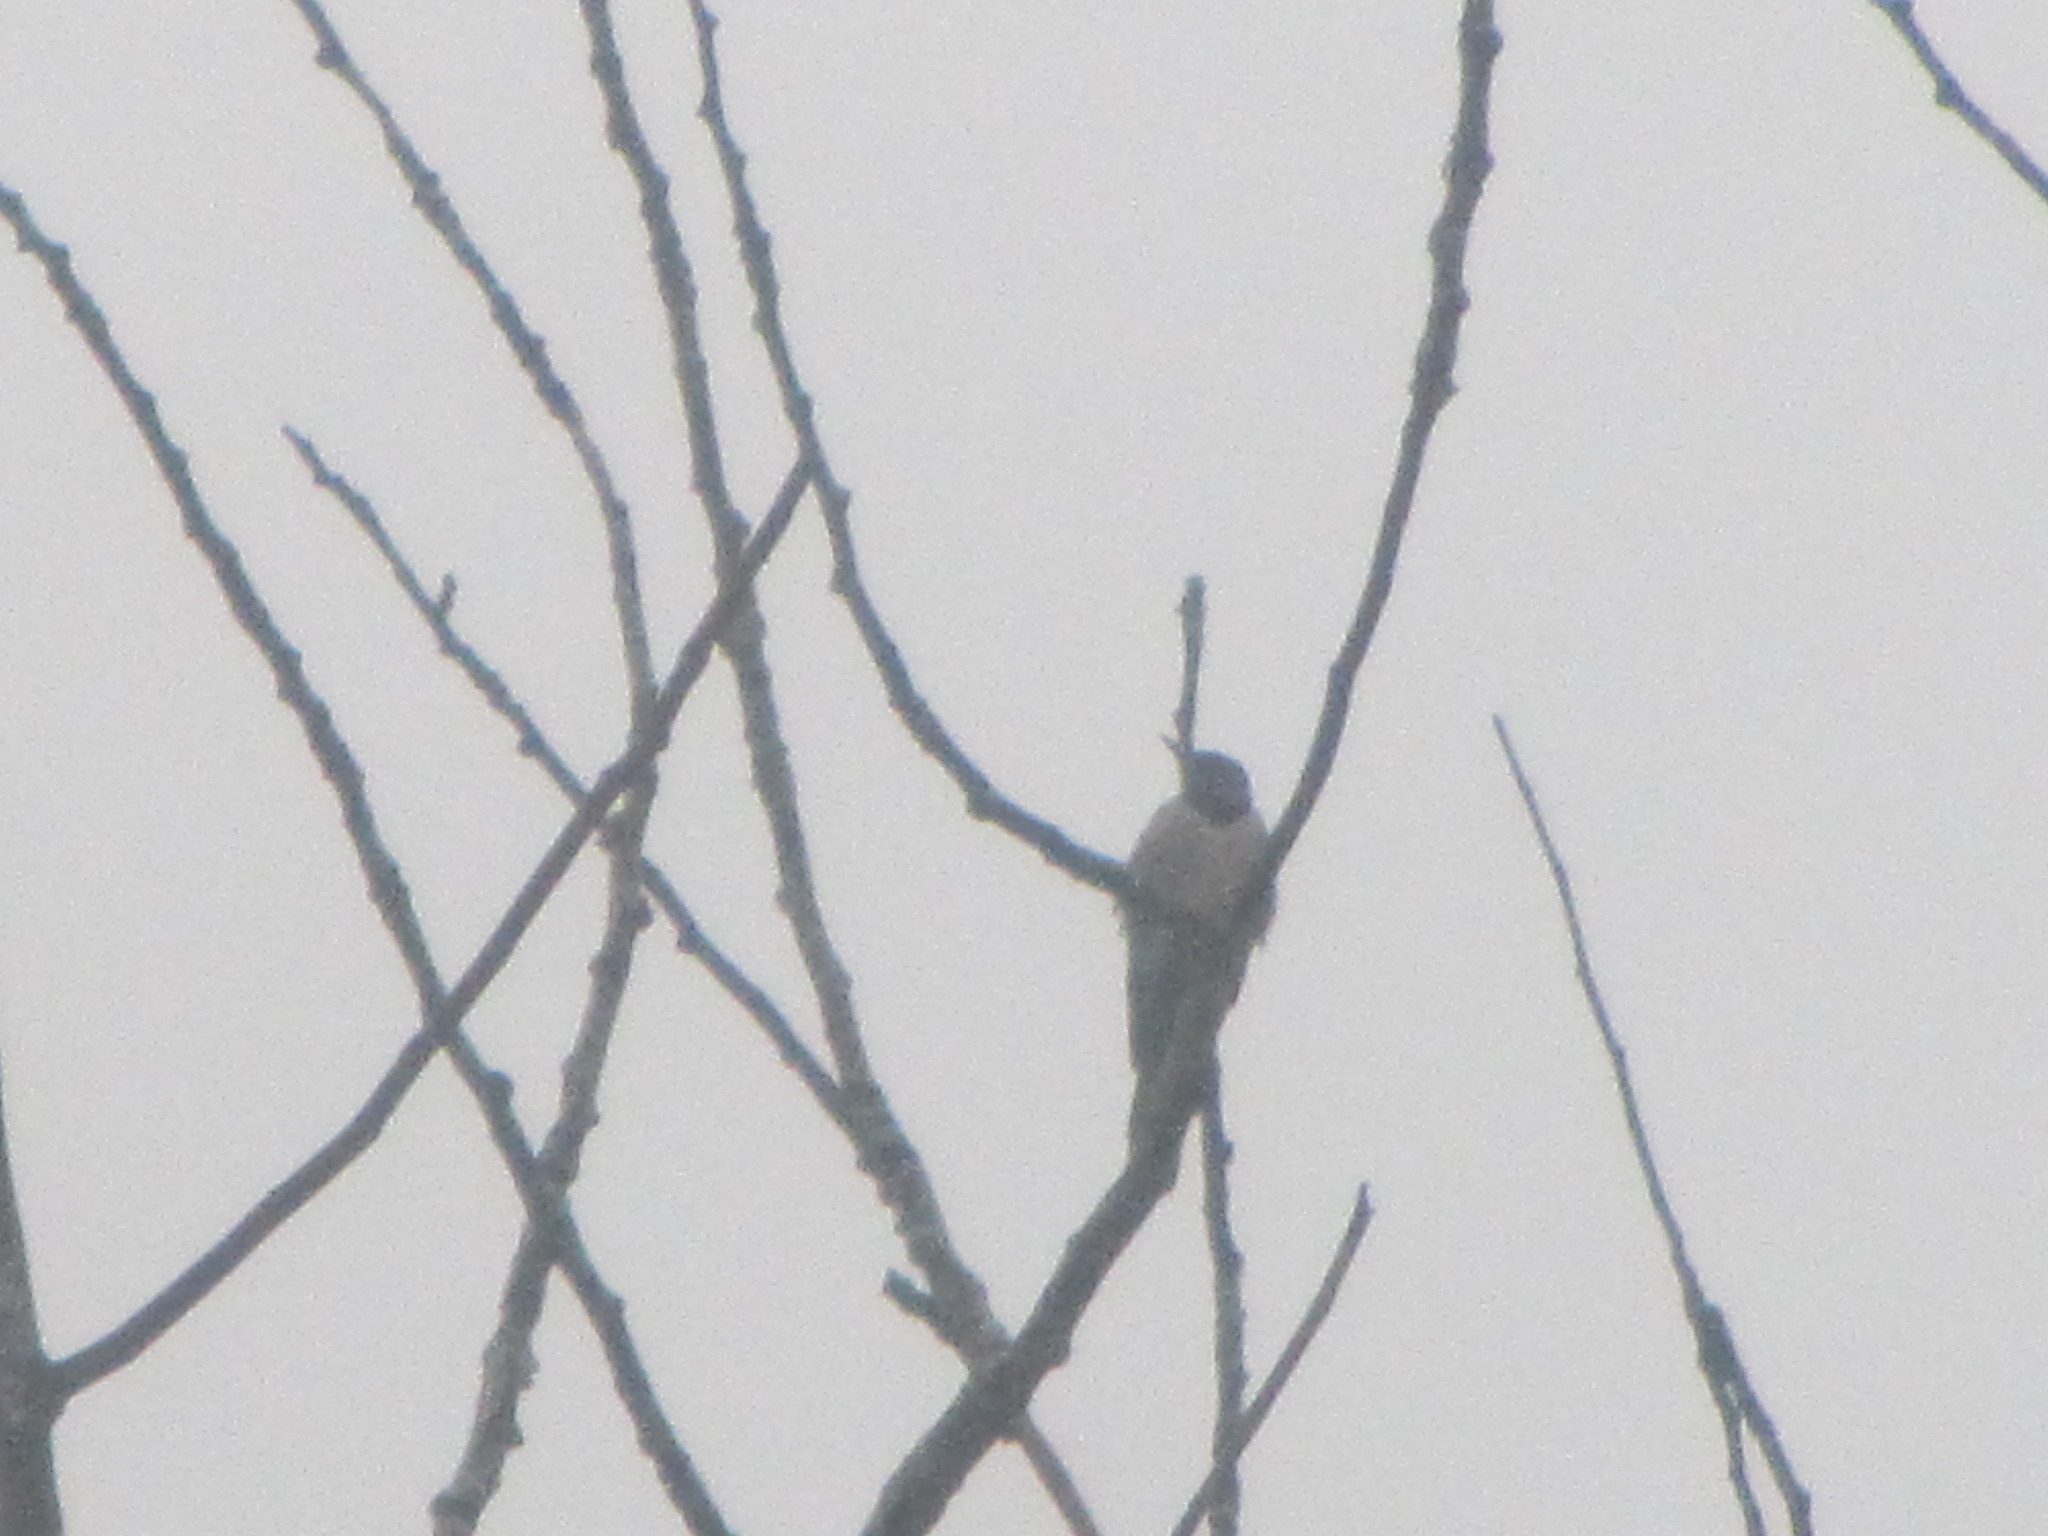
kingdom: Animalia
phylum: Chordata
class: Aves
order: Piciformes
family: Picidae
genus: Colaptes
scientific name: Colaptes auratus
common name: Northern flicker
